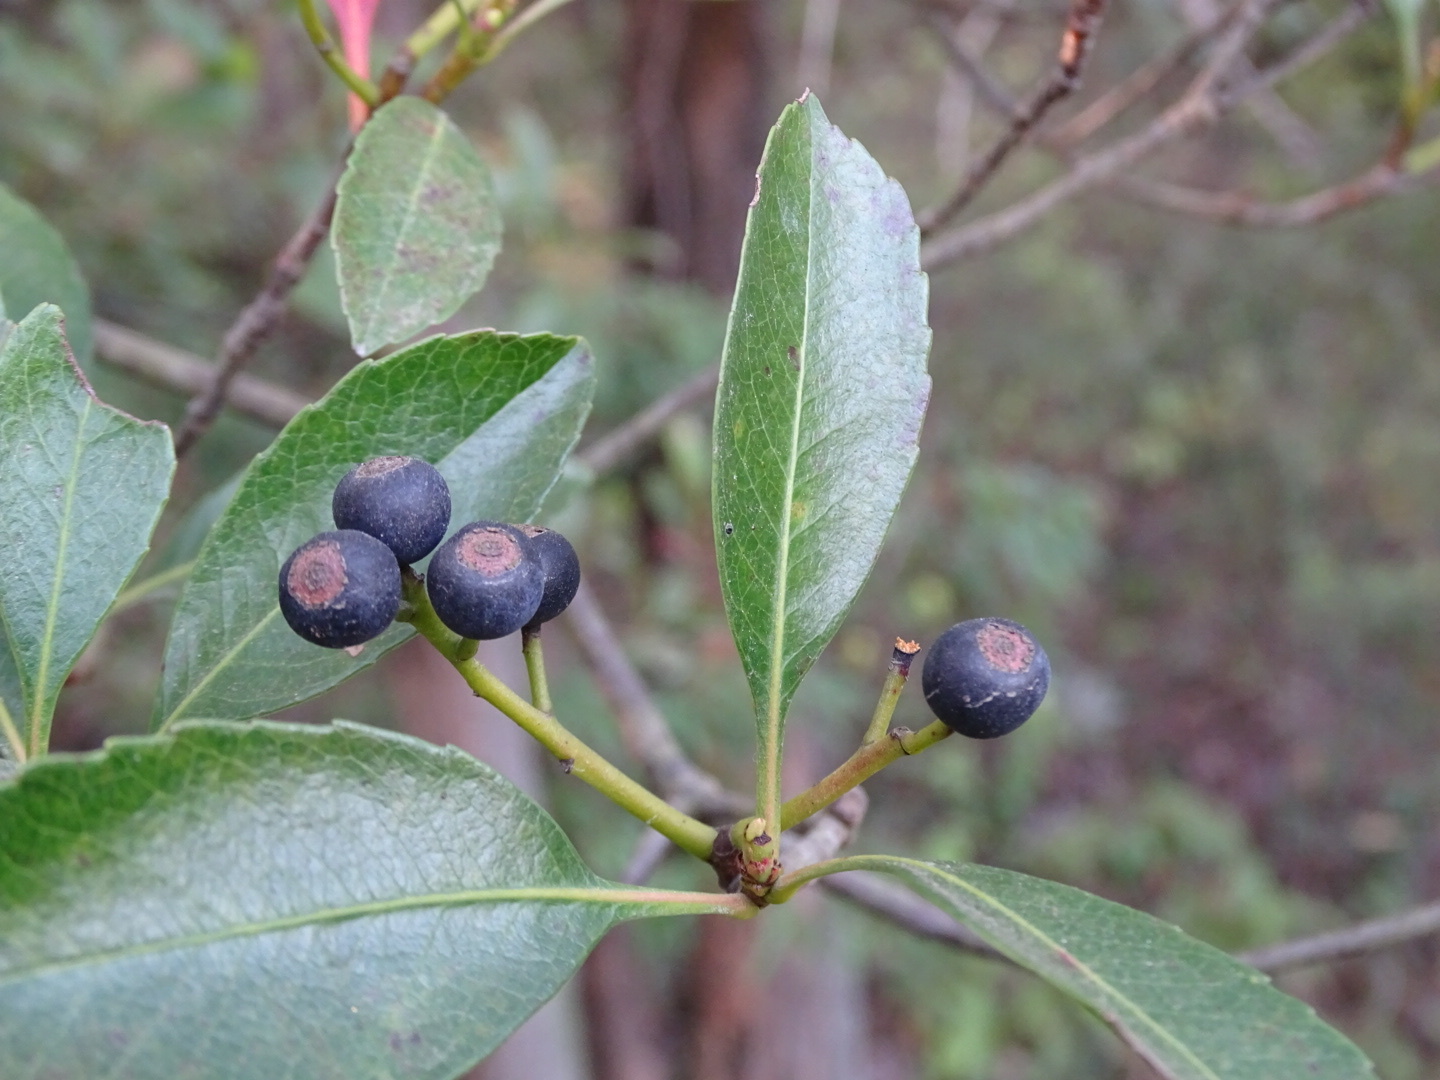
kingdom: Plantae
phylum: Tracheophyta
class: Magnoliopsida
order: Rosales
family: Rosaceae
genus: Rhaphiolepis
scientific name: Rhaphiolepis indica
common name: India-hawthorn
